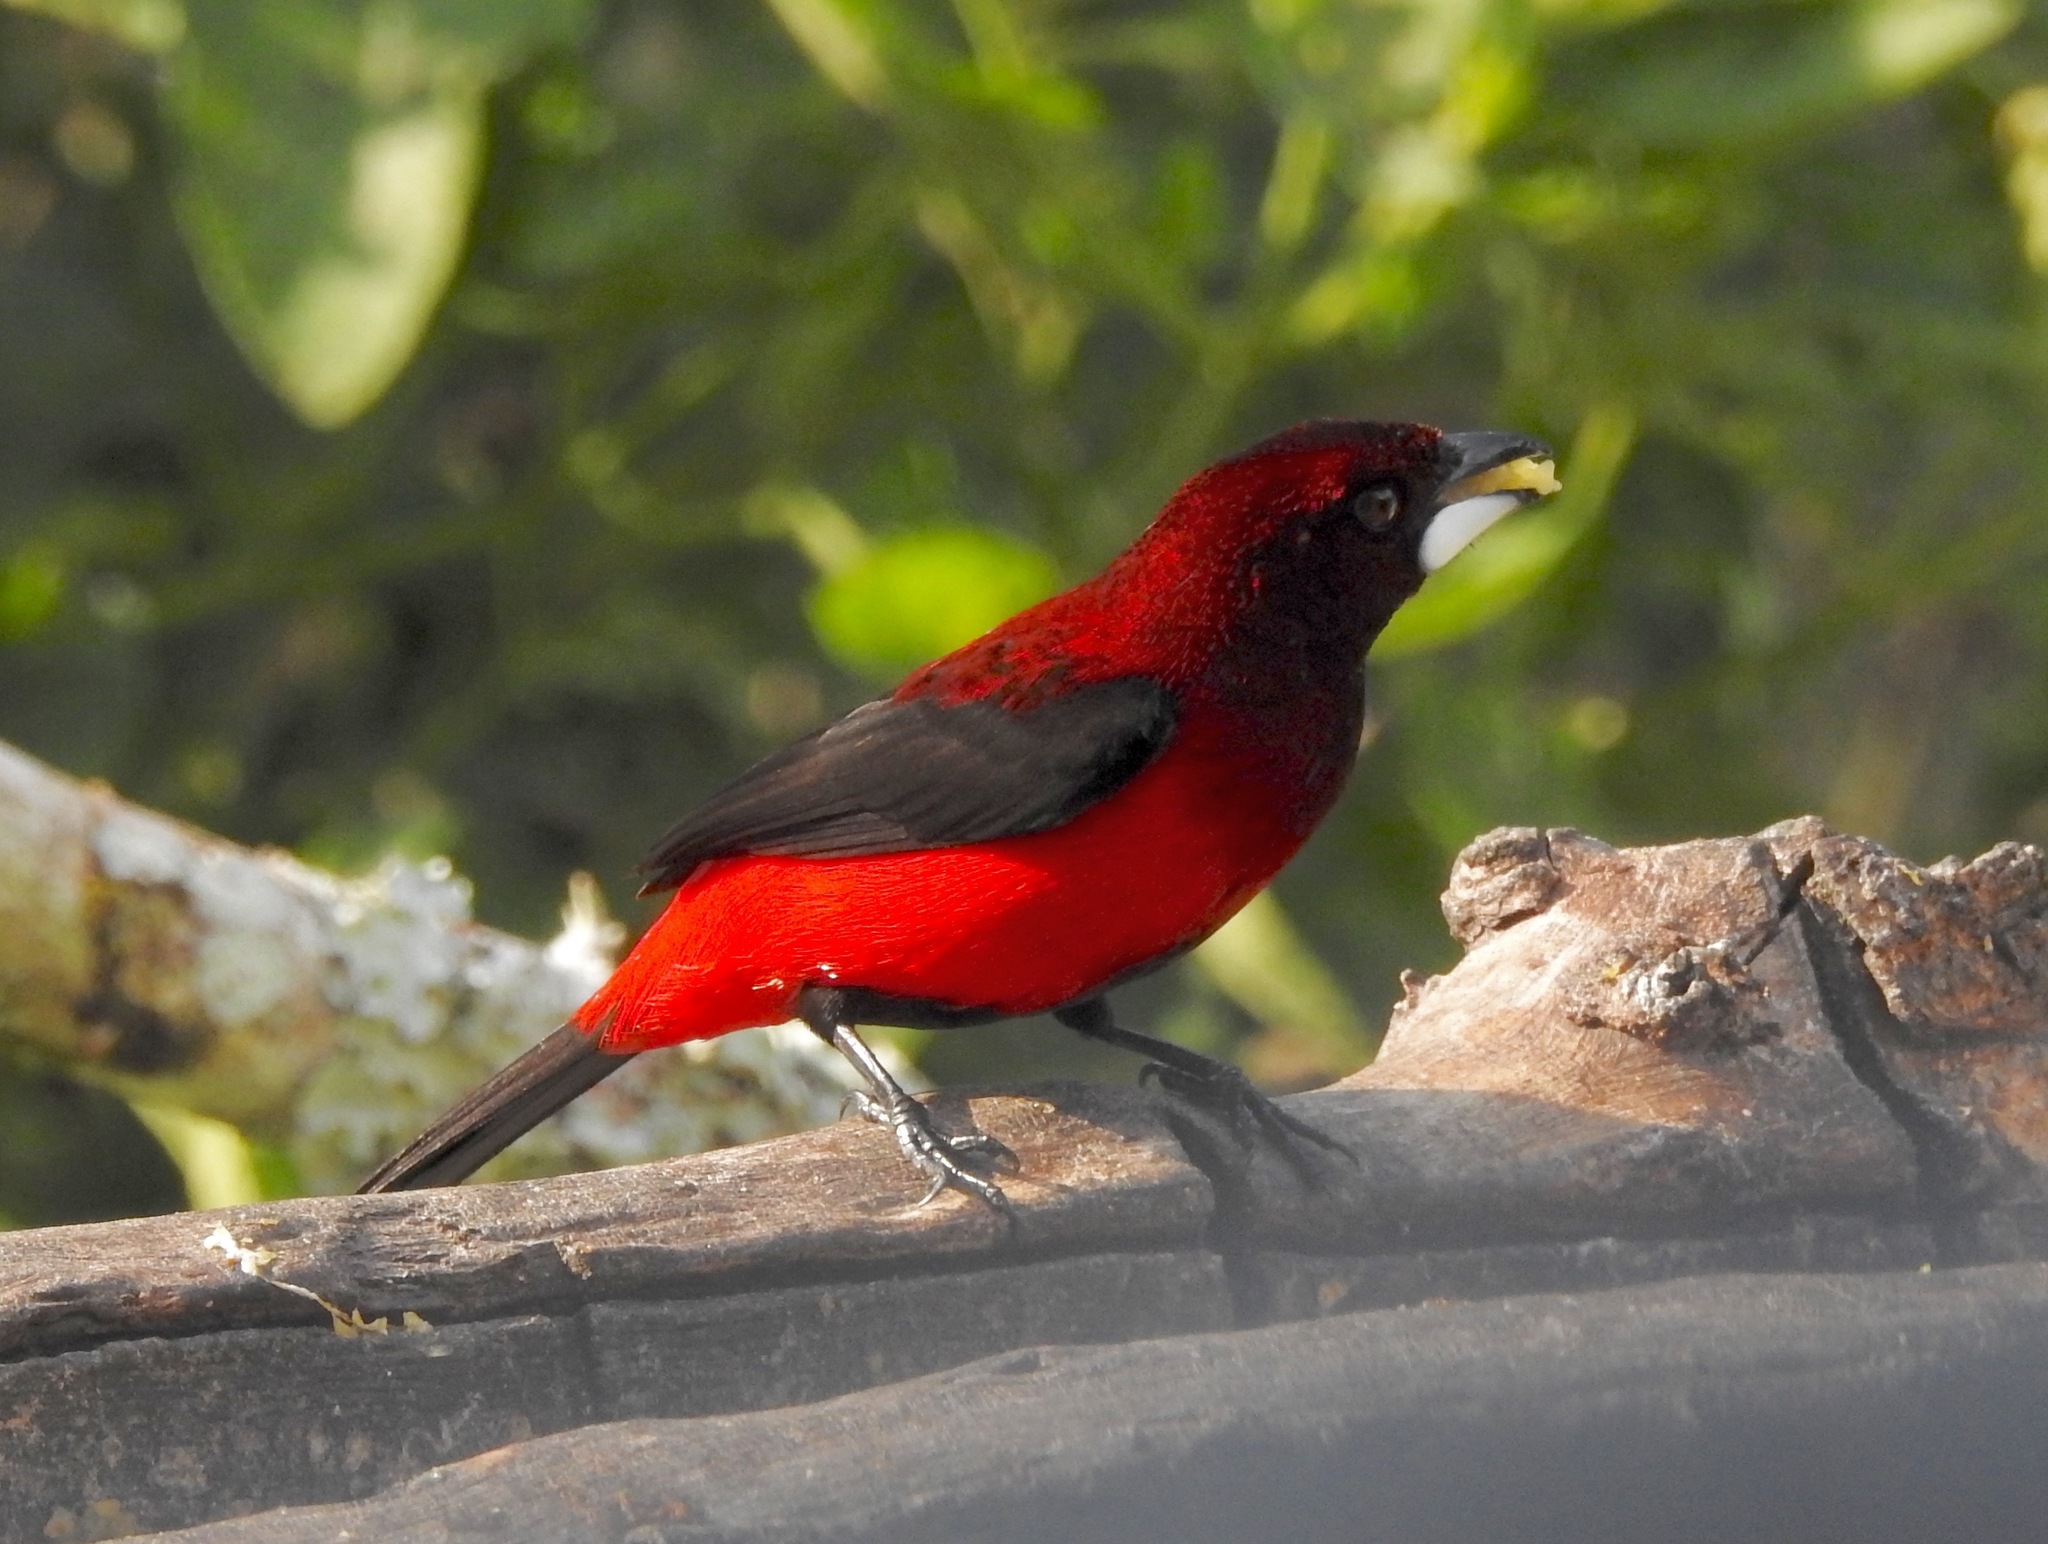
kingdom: Animalia
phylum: Chordata
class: Aves
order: Passeriformes
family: Thraupidae
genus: Ramphocelus
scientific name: Ramphocelus dimidiatus
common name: Crimson-backed tanager
